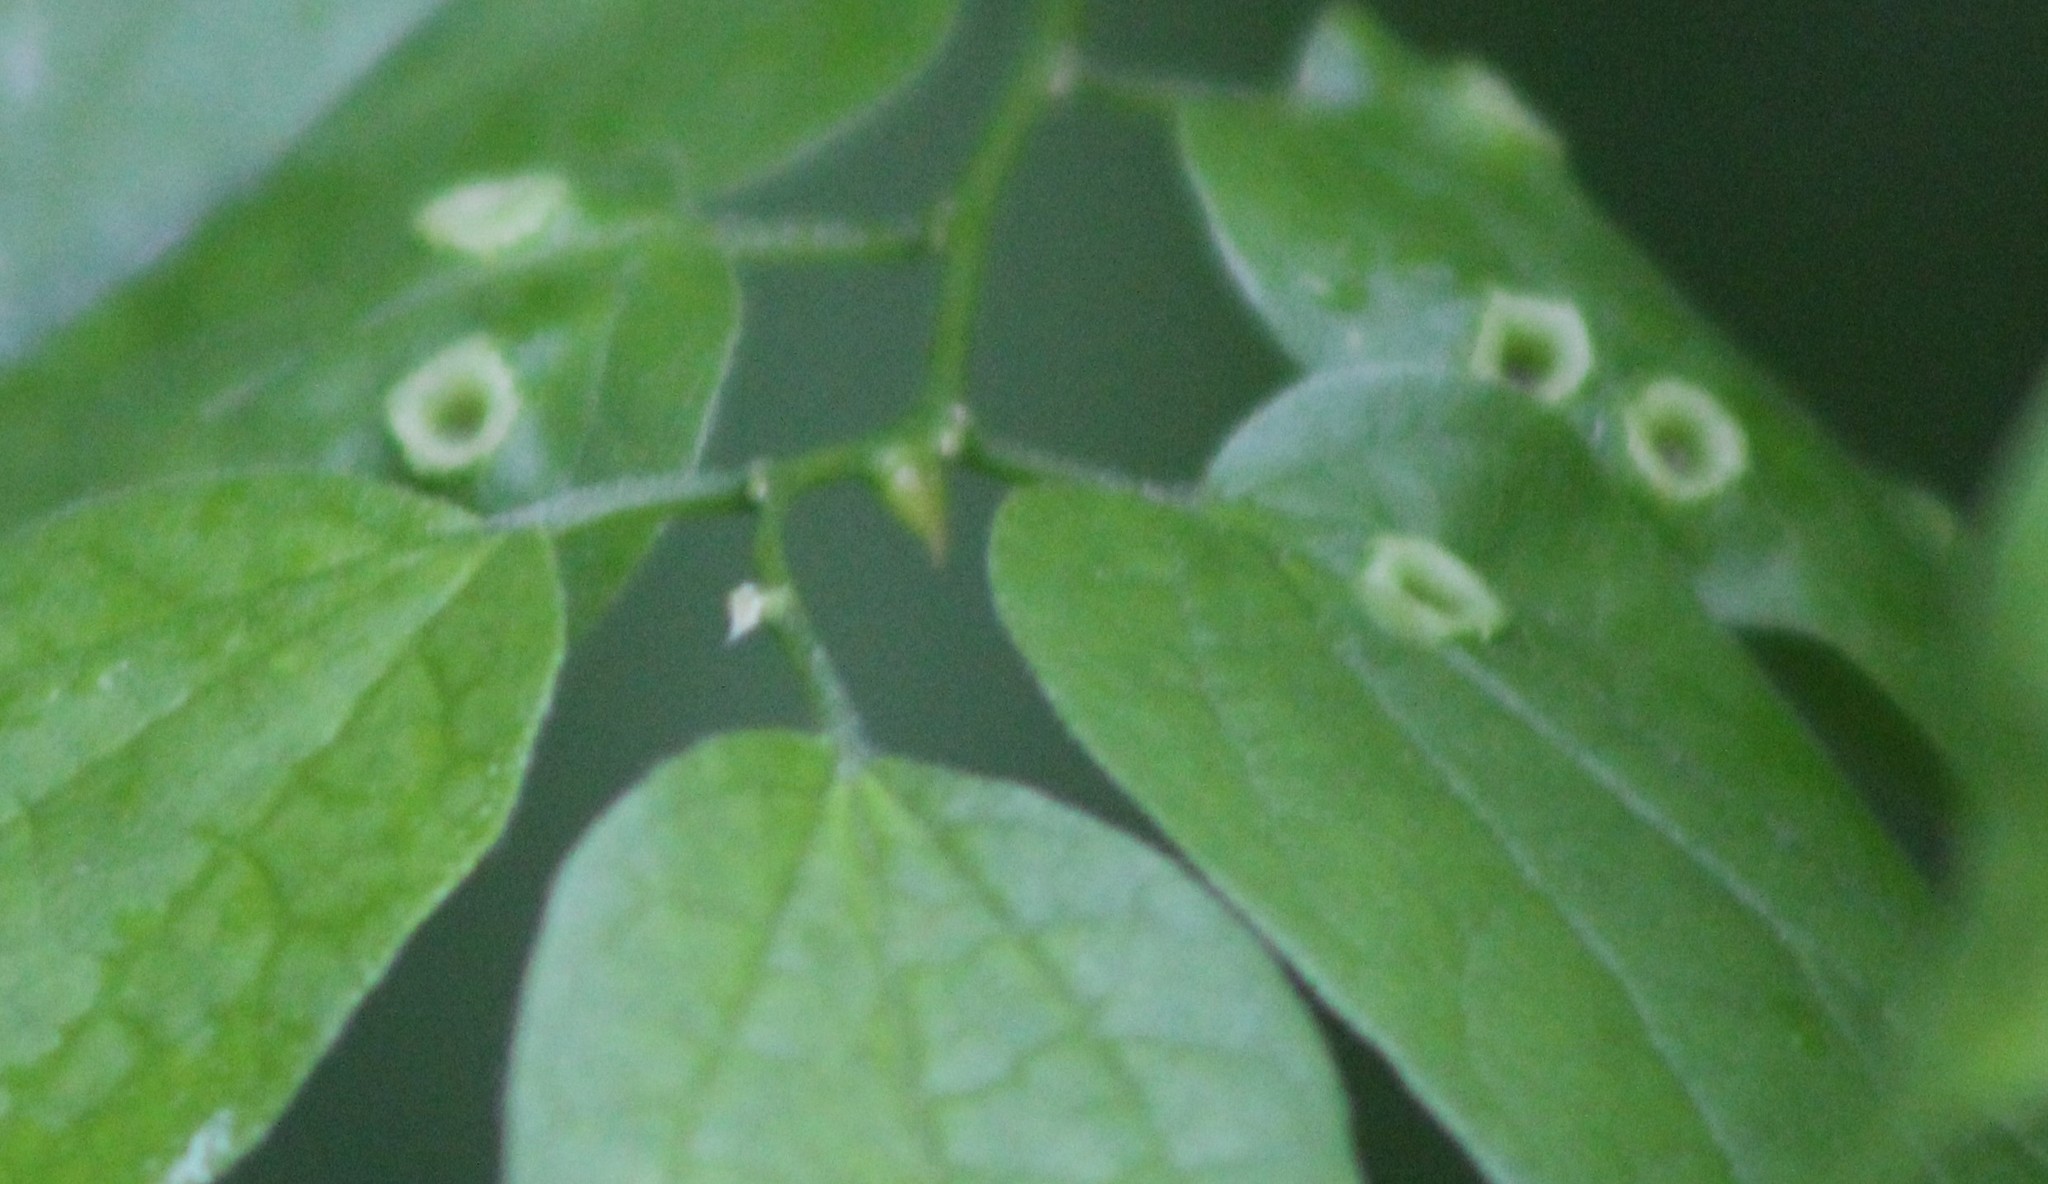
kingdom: Animalia
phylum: Arthropoda
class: Insecta
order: Hemiptera
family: Aphalaridae
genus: Pachypsylla
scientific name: Pachypsylla celtidismamma
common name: Hackberry nipplegall psyllid
